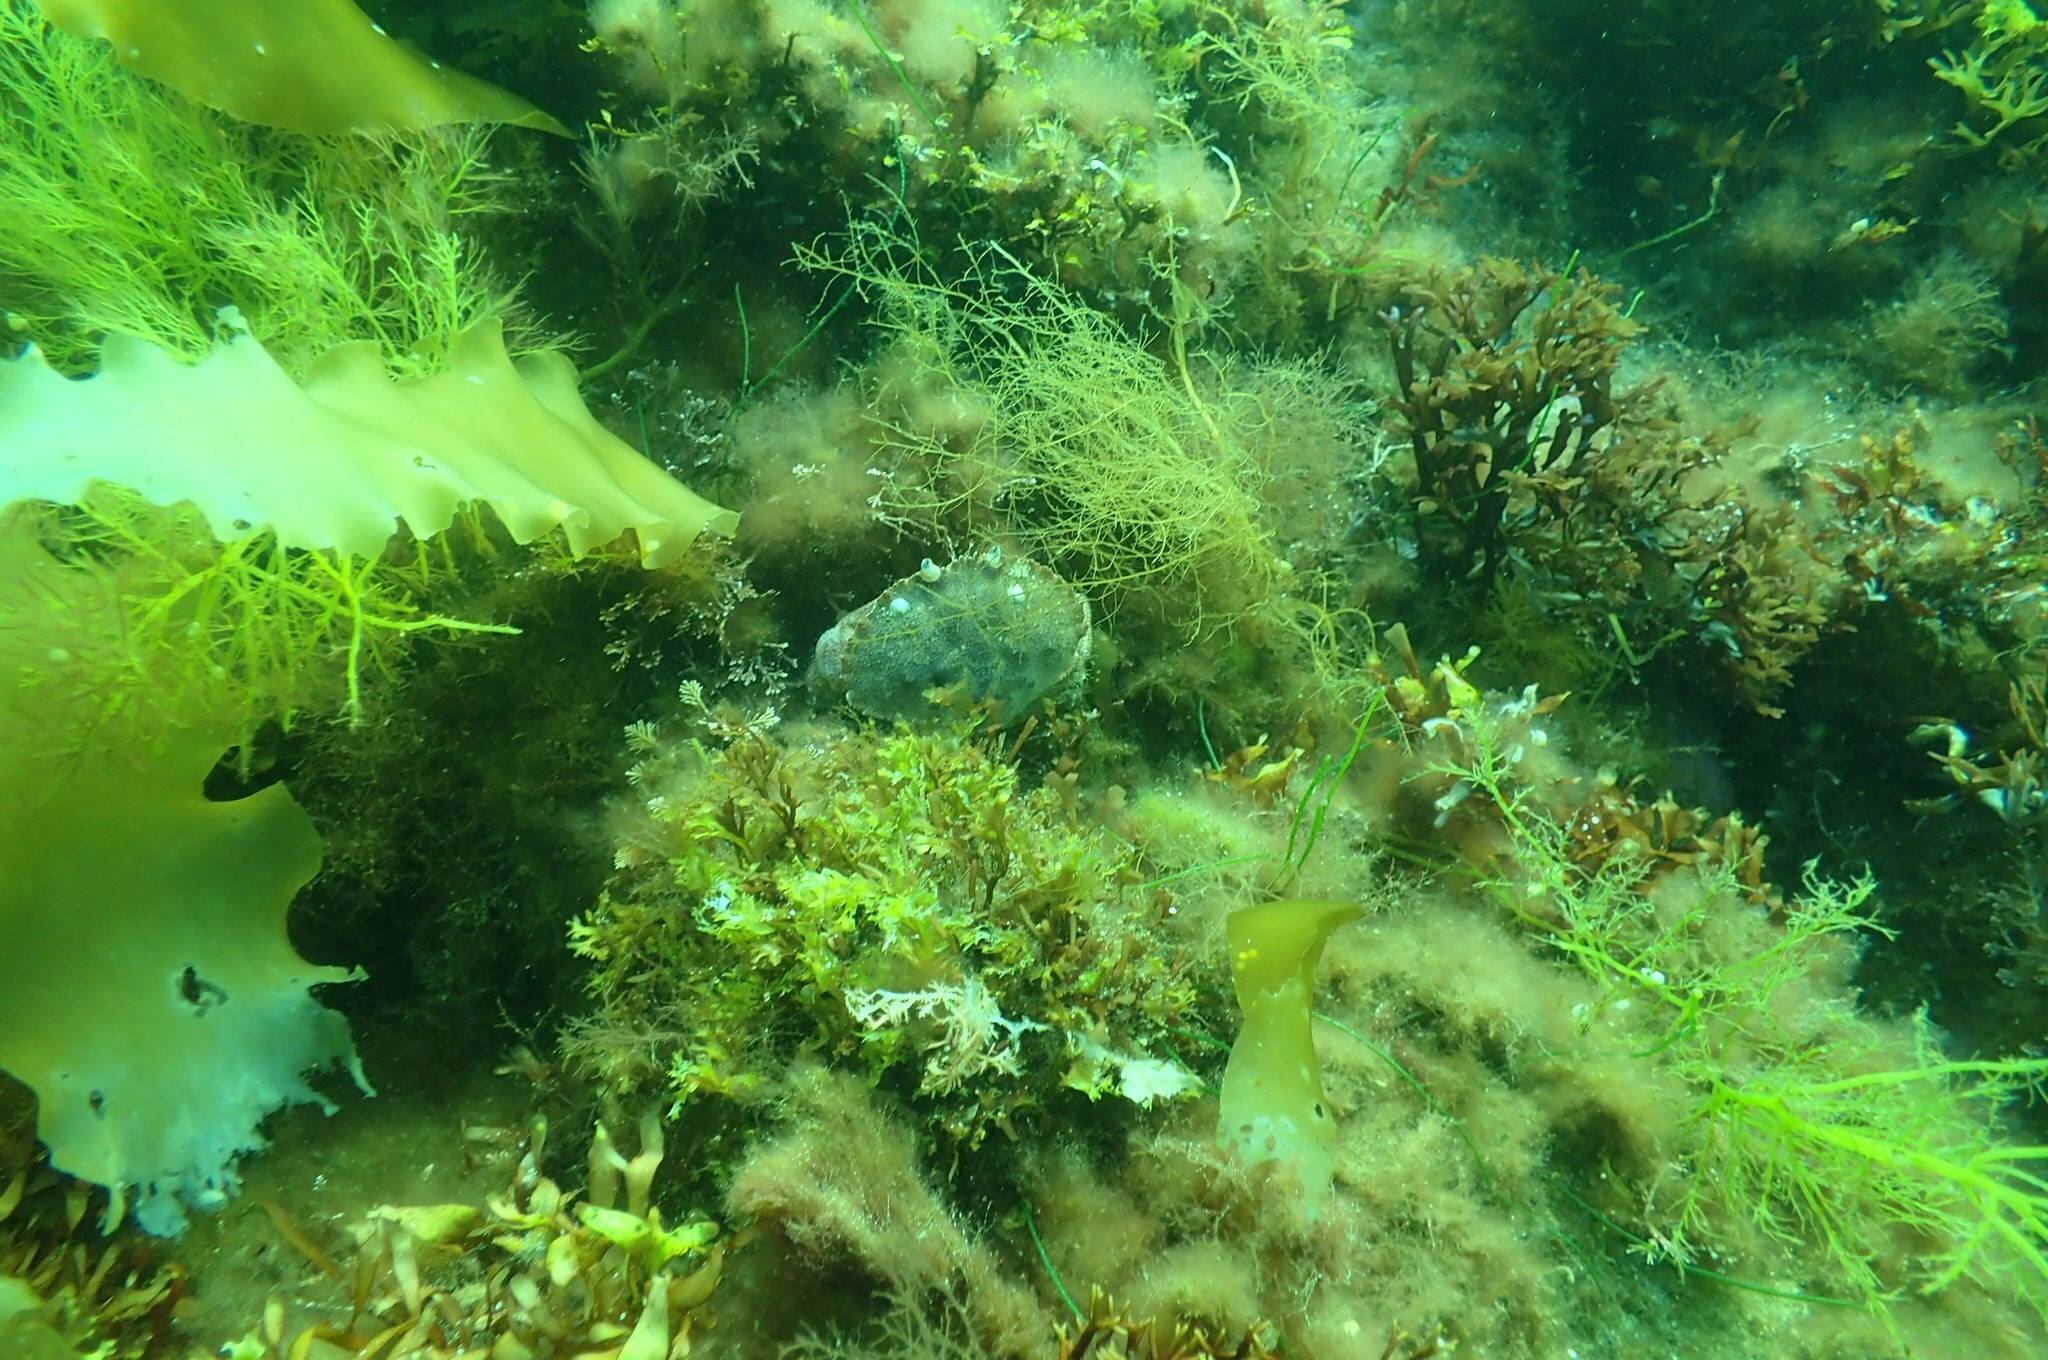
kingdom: Animalia
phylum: Arthropoda
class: Malacostraca
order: Decapoda
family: Cancridae
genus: Cancer
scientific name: Cancer borealis
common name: Jonah crab
